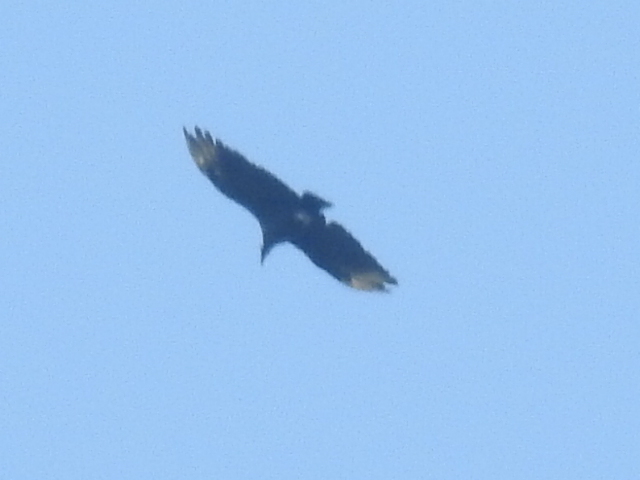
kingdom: Animalia
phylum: Chordata
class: Aves
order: Accipitriformes
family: Cathartidae
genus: Coragyps
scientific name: Coragyps atratus
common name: Black vulture
